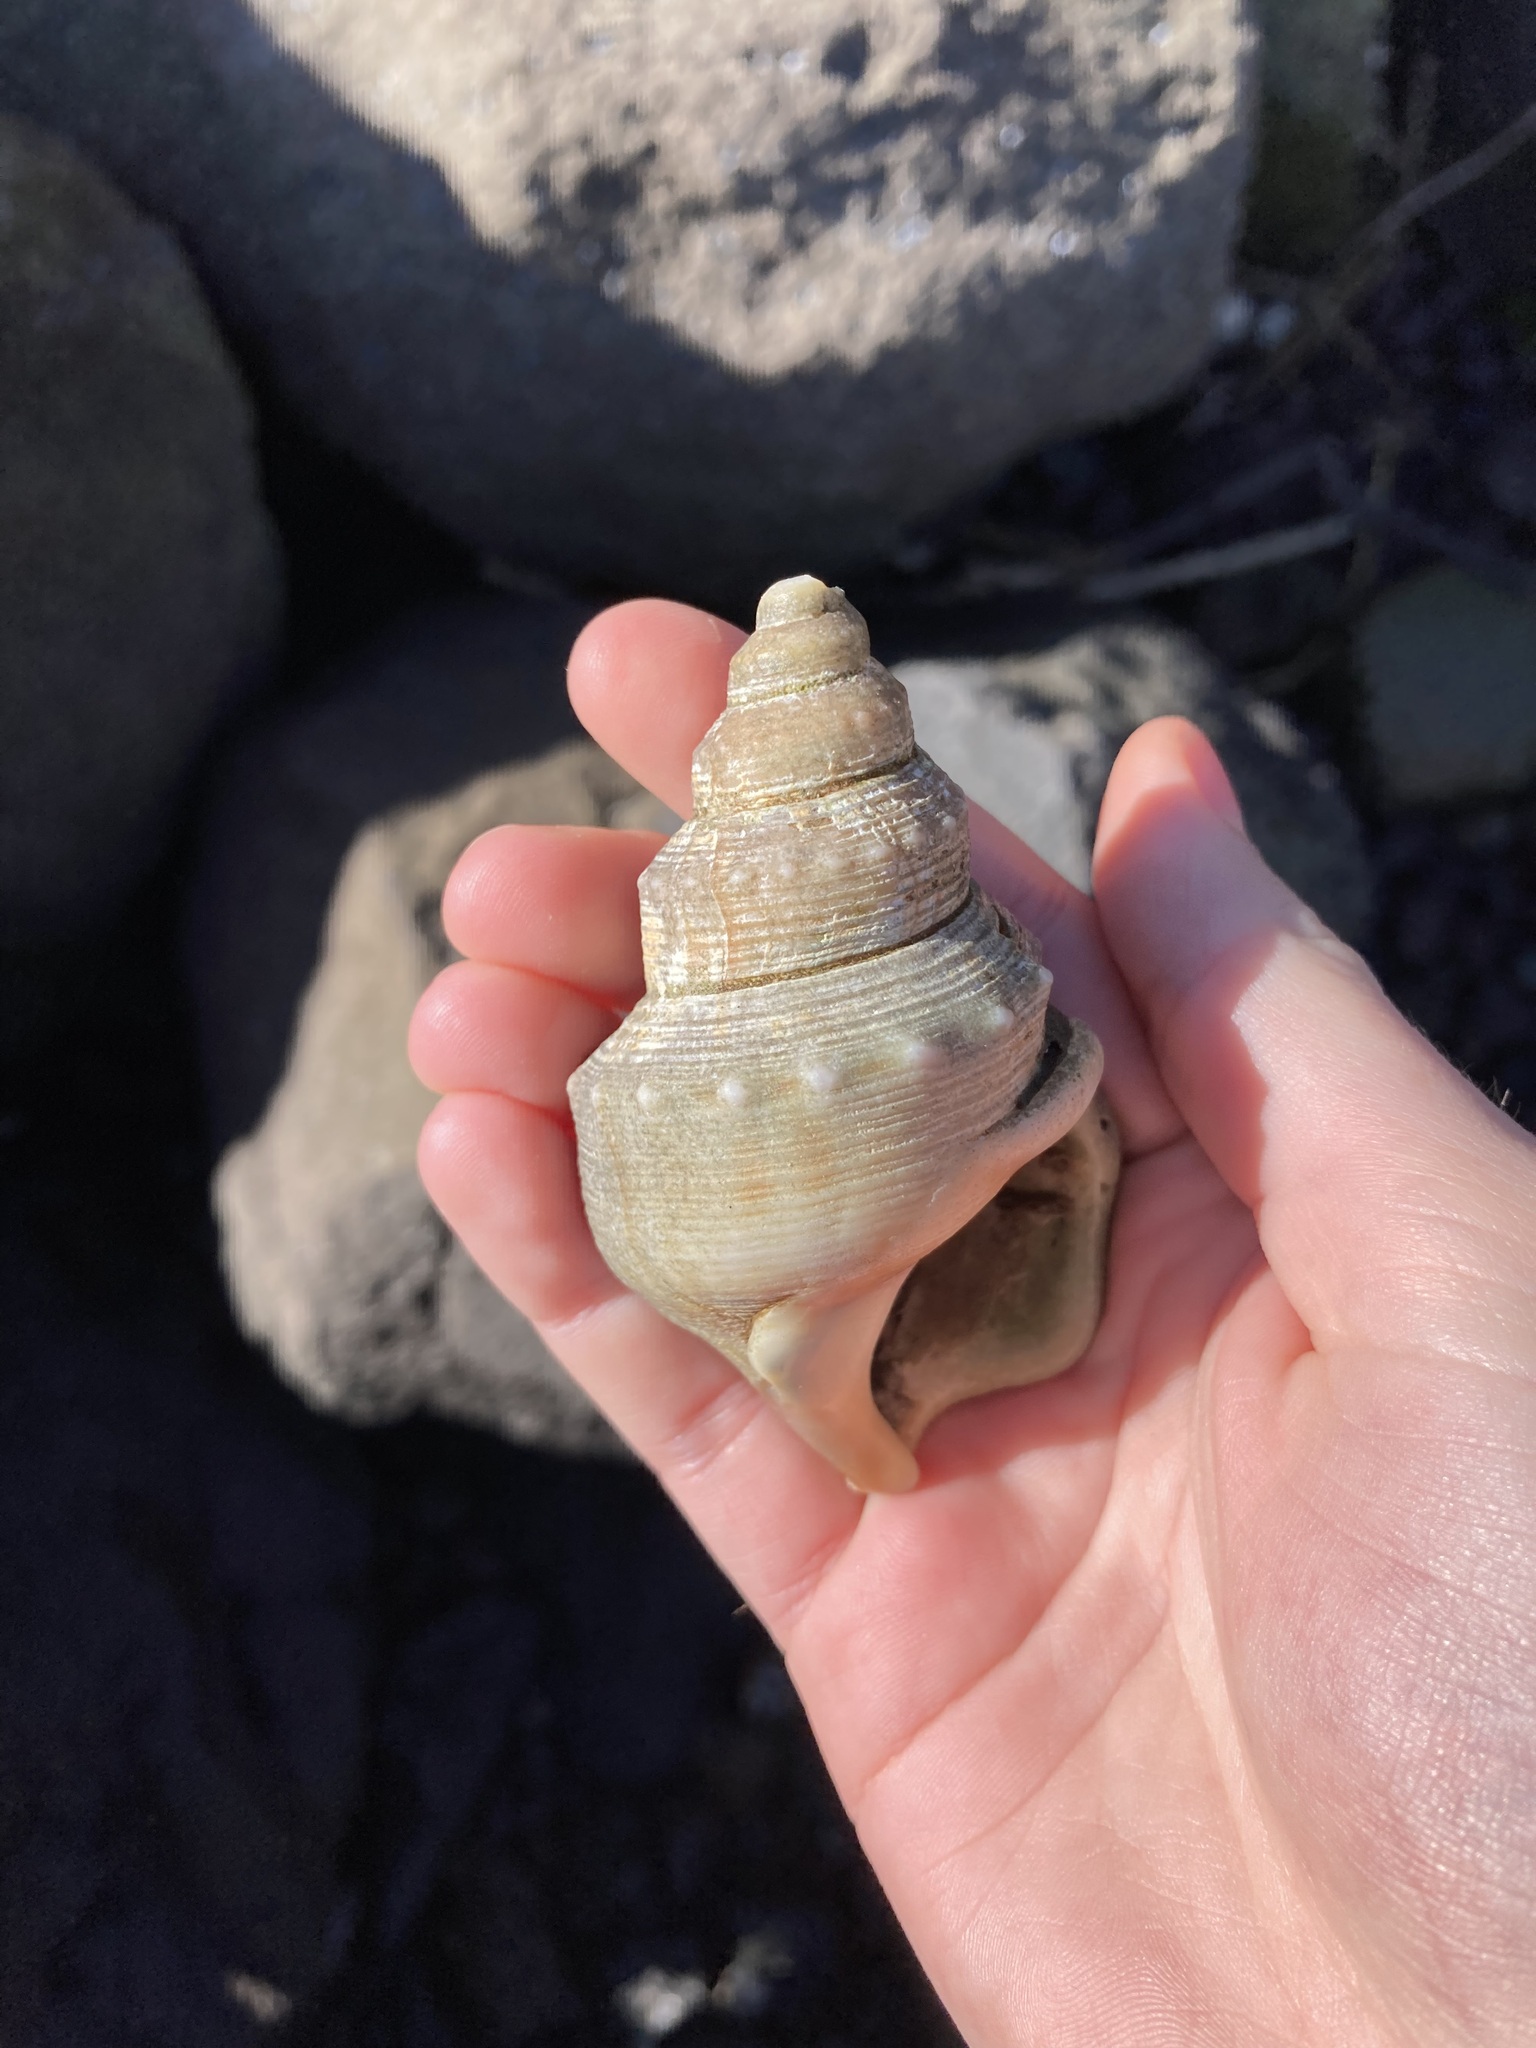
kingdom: Animalia
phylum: Mollusca
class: Gastropoda
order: Littorinimorpha
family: Struthiolariidae
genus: Struthiolaria
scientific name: Struthiolaria papulosa
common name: Large ostrich foot
